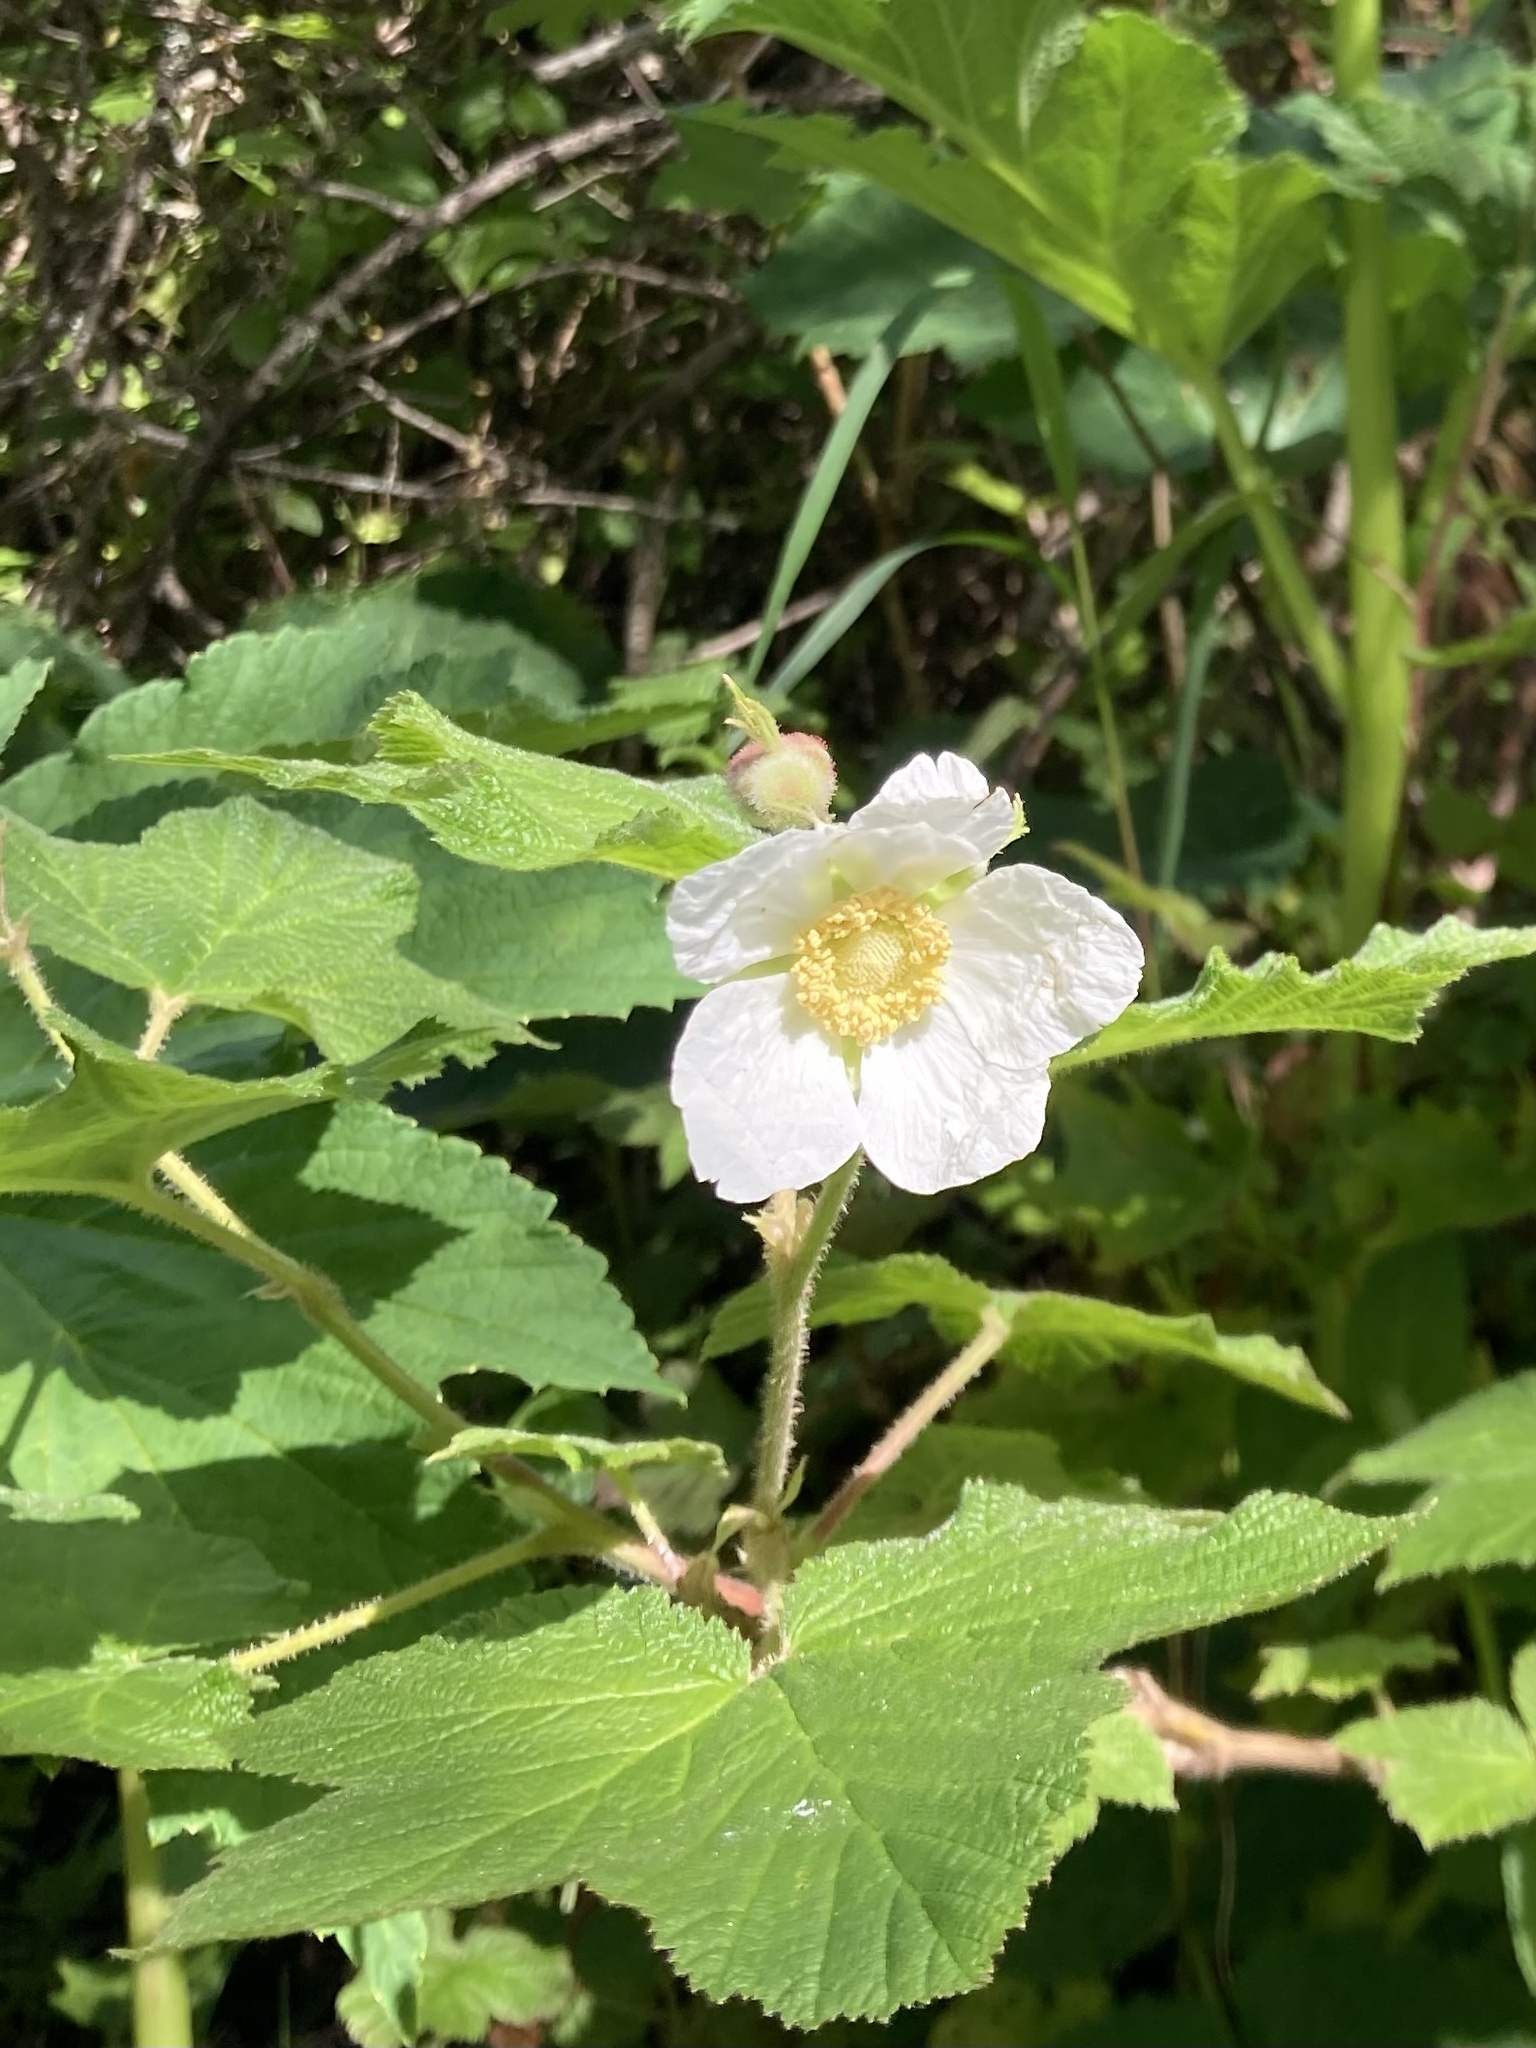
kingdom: Plantae
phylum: Tracheophyta
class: Magnoliopsida
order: Rosales
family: Rosaceae
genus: Rubus
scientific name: Rubus parviflorus
